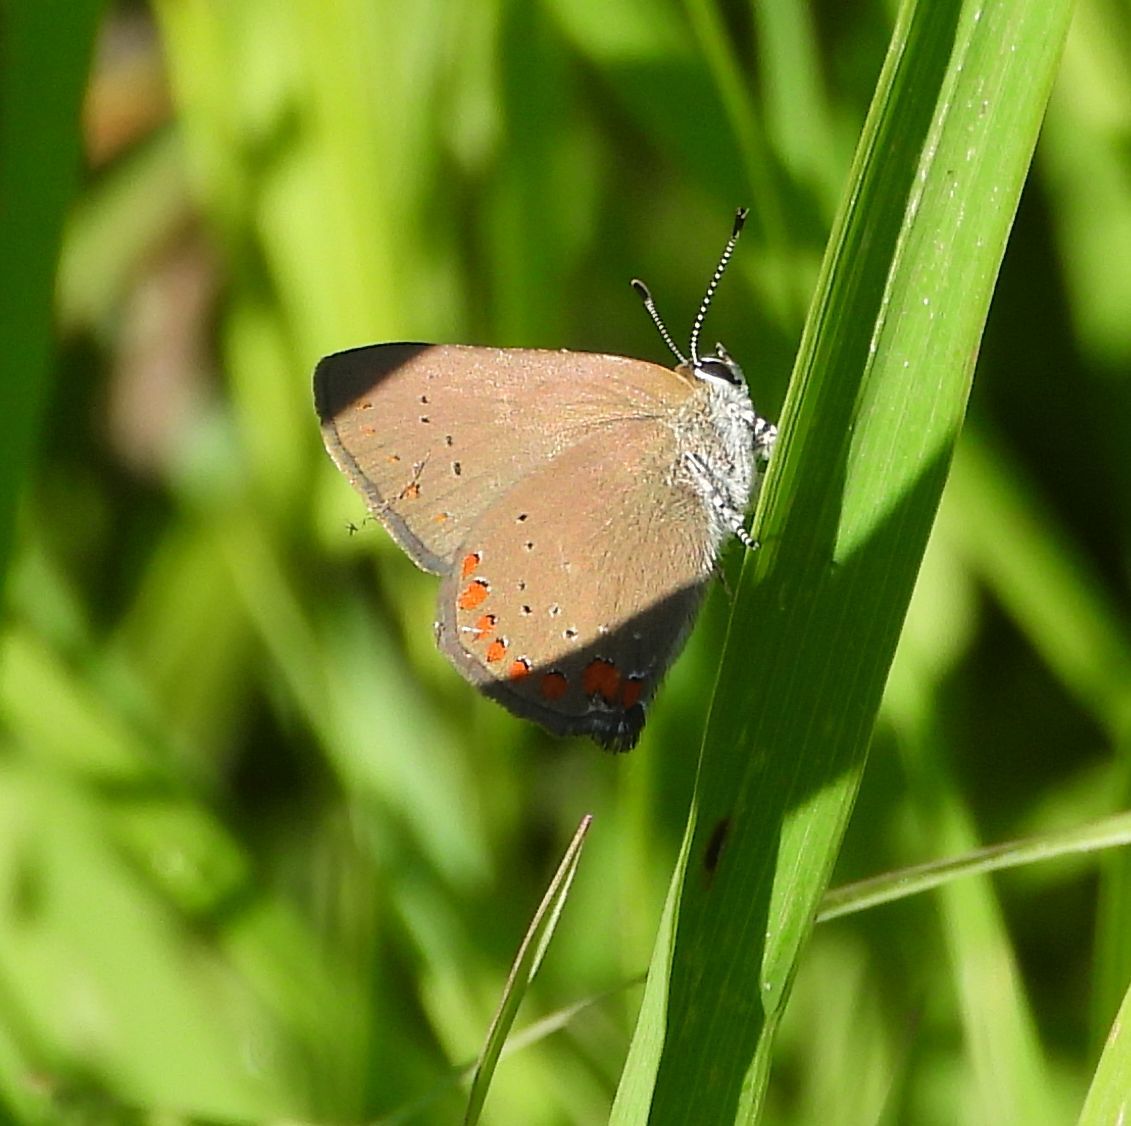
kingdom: Animalia
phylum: Arthropoda
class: Insecta
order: Lepidoptera
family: Lycaenidae
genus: Harkenclenus
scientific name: Harkenclenus titus
